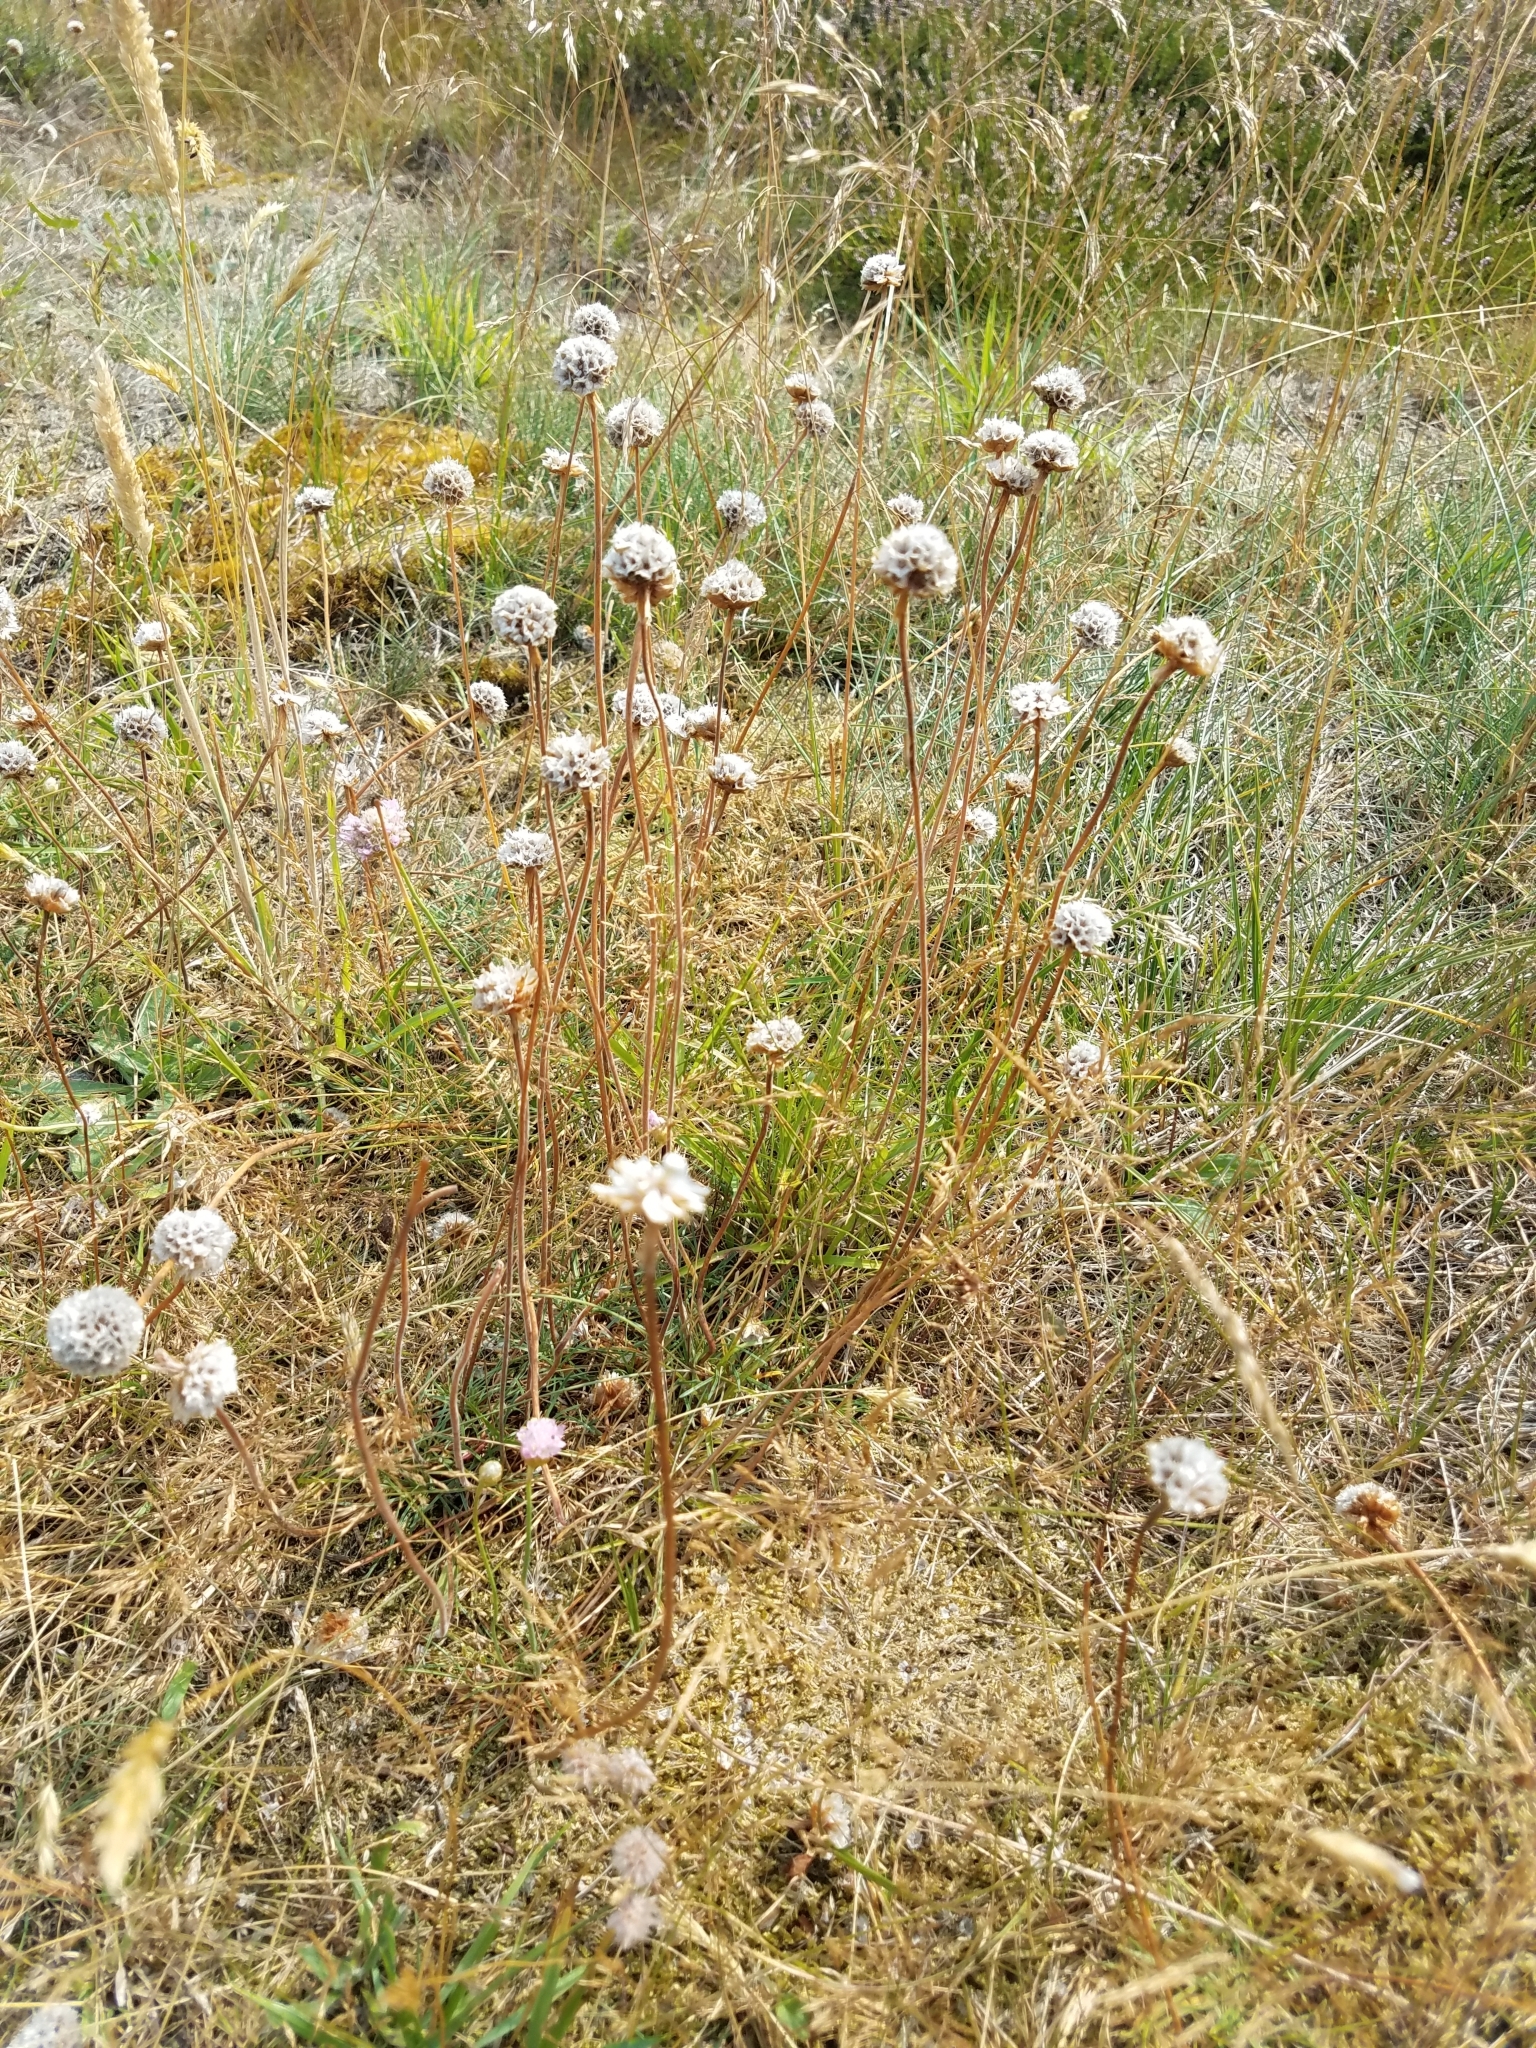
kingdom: Plantae
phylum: Tracheophyta
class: Magnoliopsida
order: Caryophyllales
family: Plumbaginaceae
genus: Armeria
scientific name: Armeria maritima
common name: Thrift
